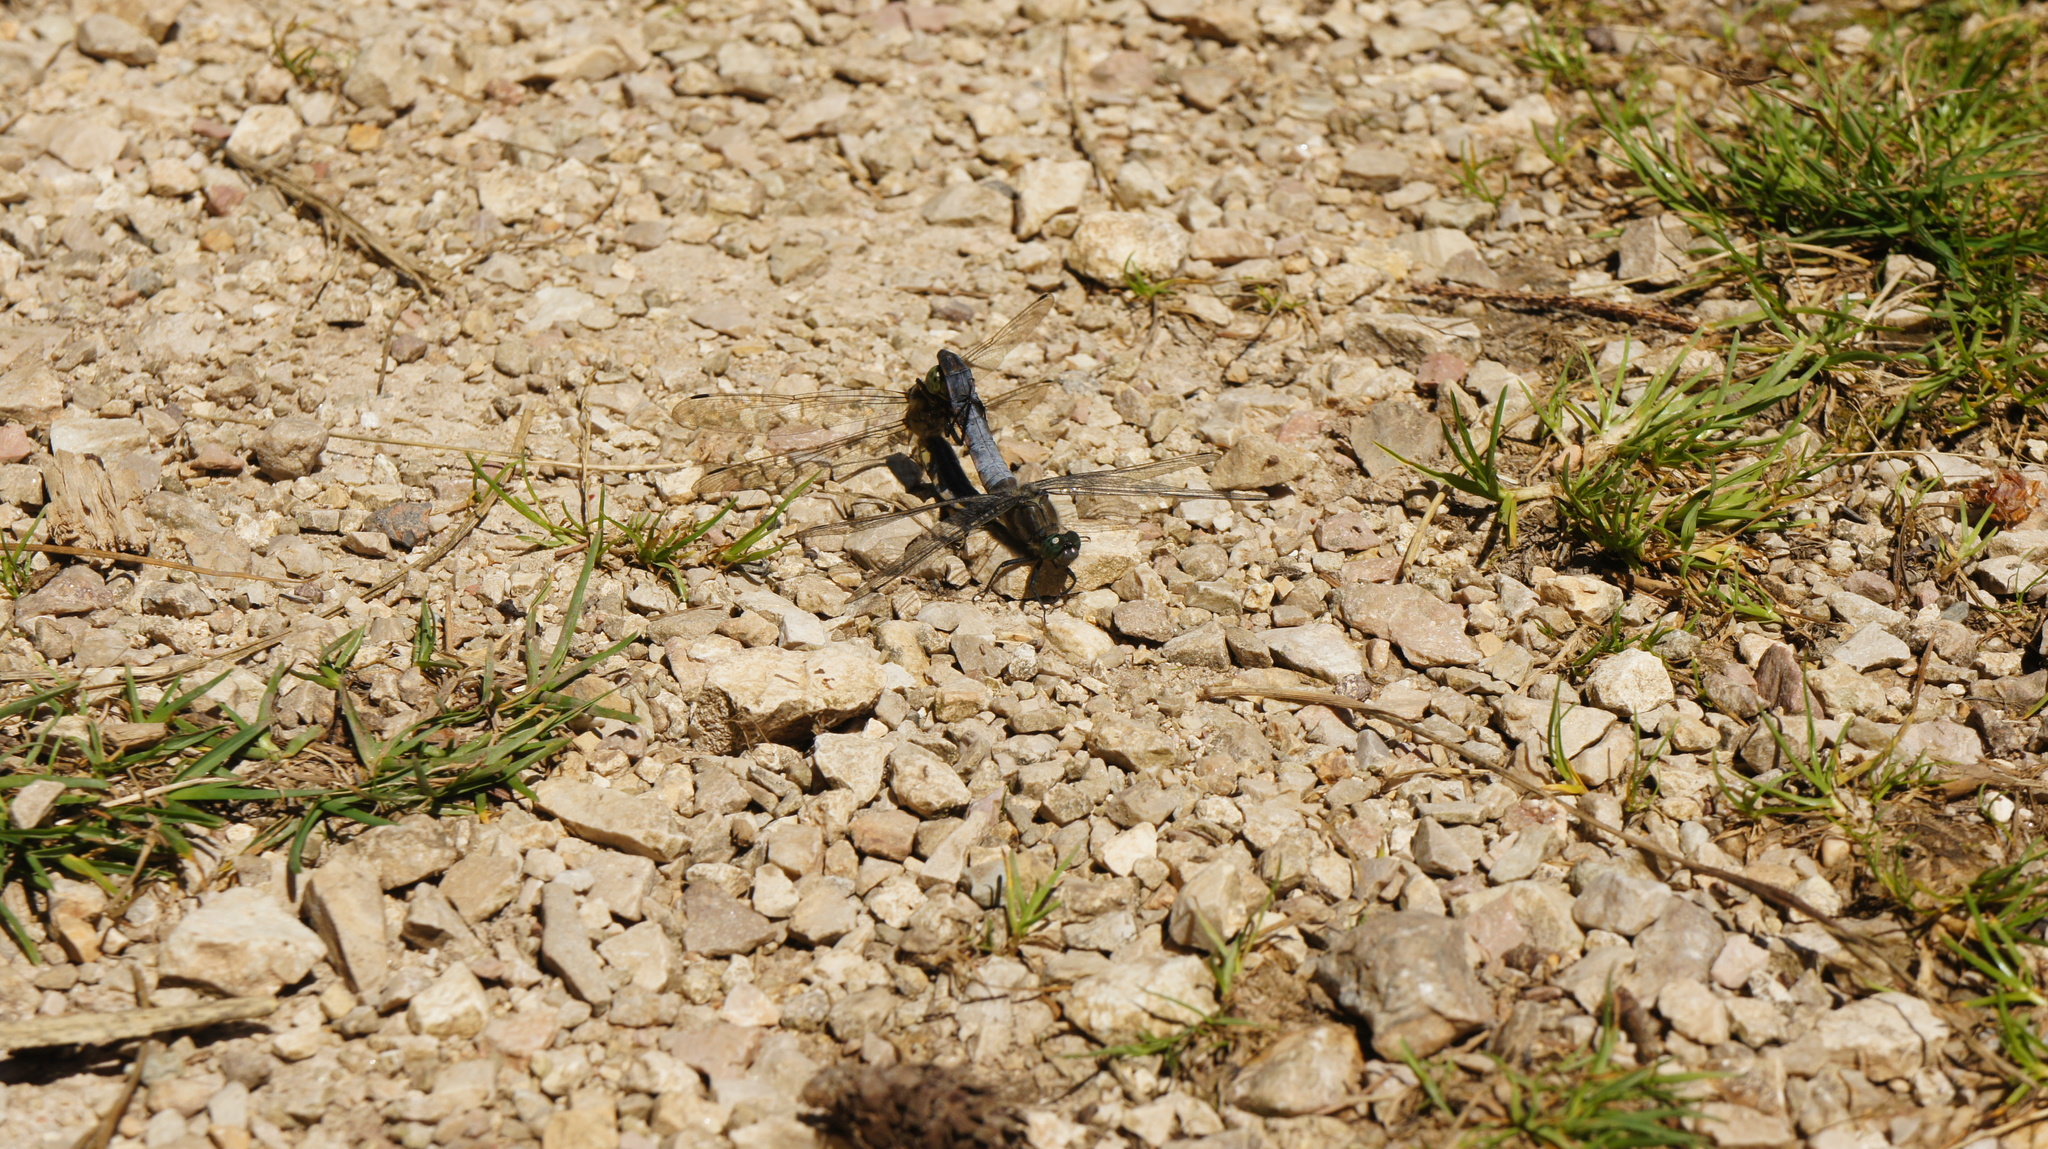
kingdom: Animalia
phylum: Arthropoda
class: Insecta
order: Odonata
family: Libellulidae
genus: Orthetrum
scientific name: Orthetrum cancellatum
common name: Black-tailed skimmer
